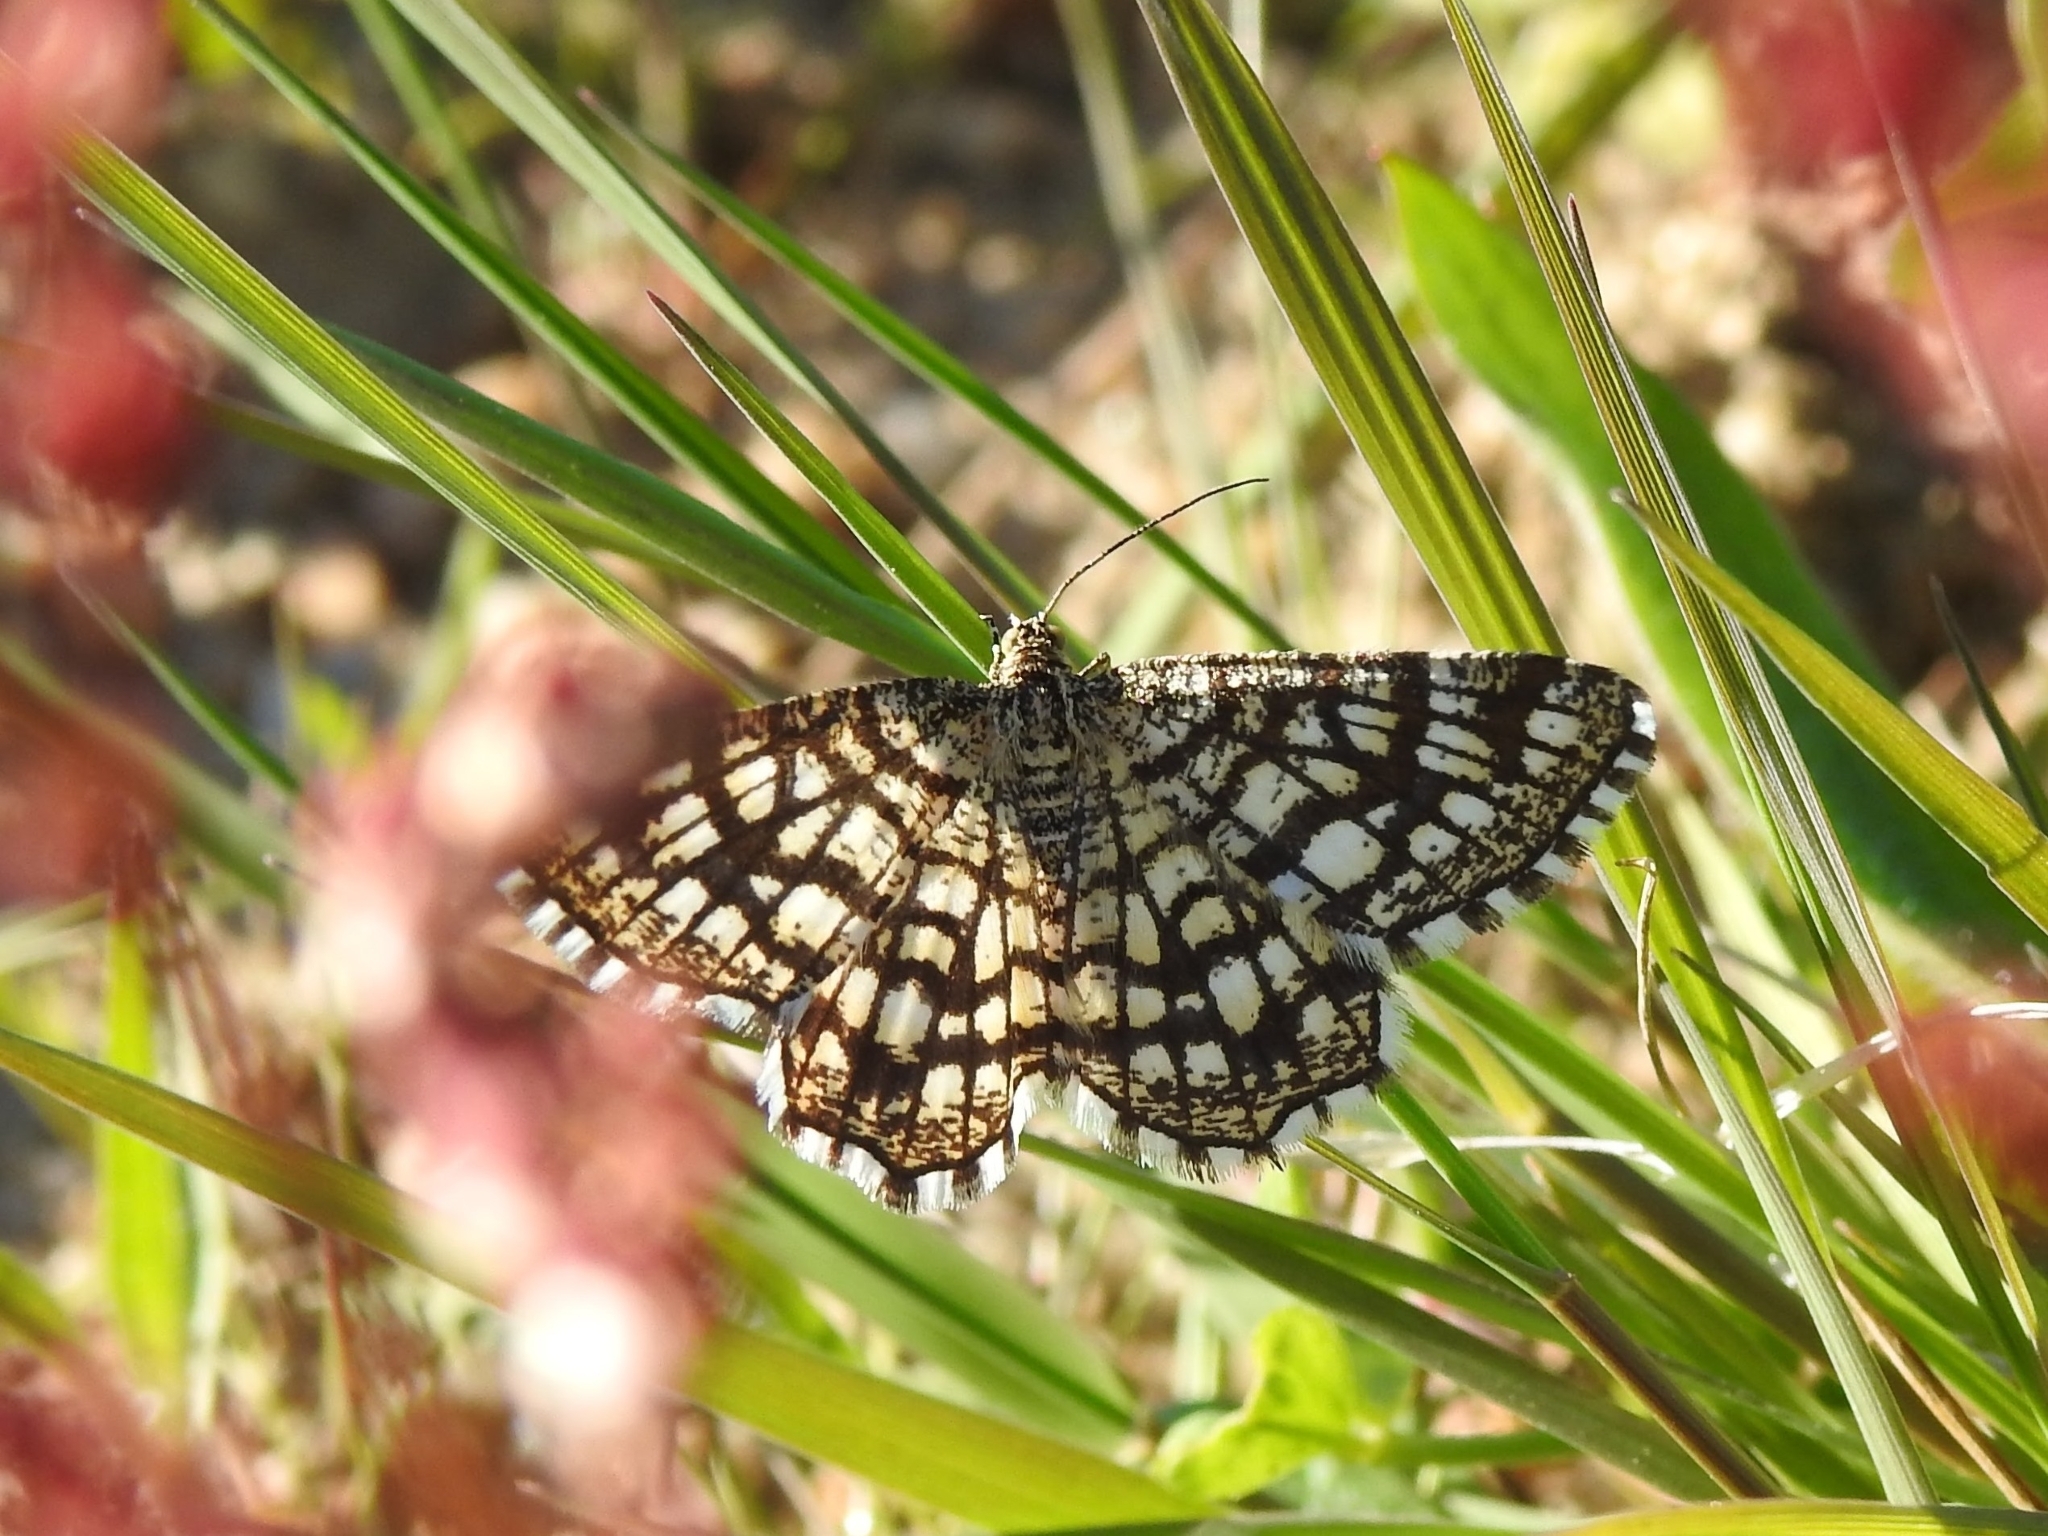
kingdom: Animalia
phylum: Arthropoda
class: Insecta
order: Lepidoptera
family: Geometridae
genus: Chiasmia
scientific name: Chiasmia clathrata
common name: Latticed heath
